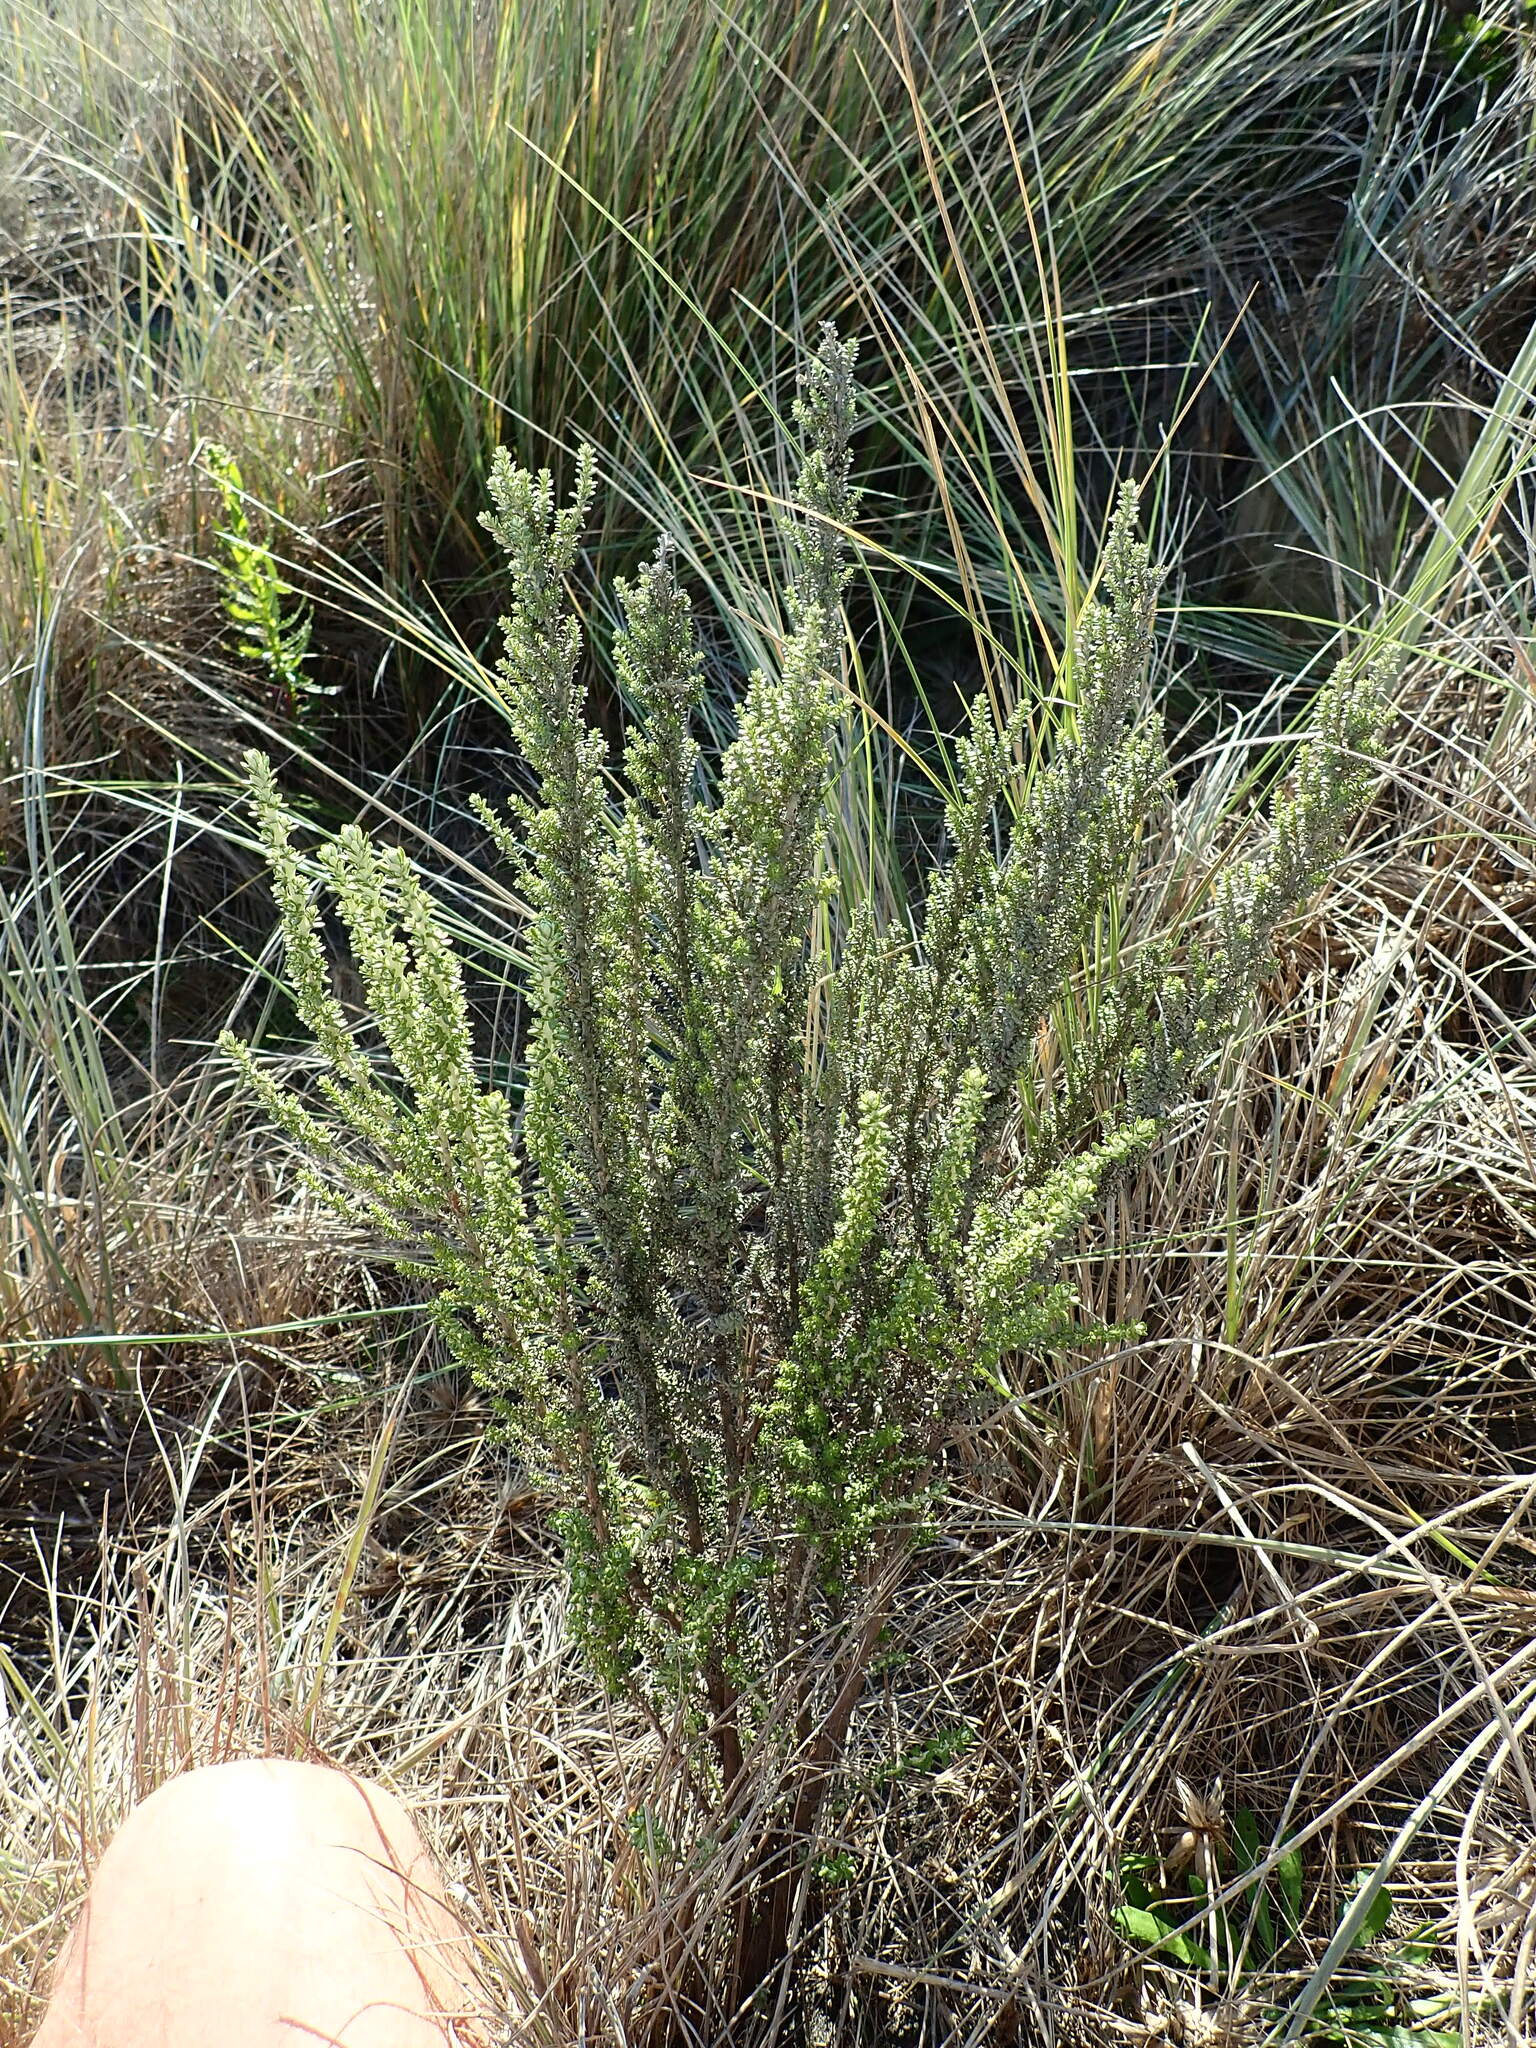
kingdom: Plantae
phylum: Tracheophyta
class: Magnoliopsida
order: Asterales
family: Asteraceae
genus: Ozothamnus
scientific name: Ozothamnus leptophyllus
